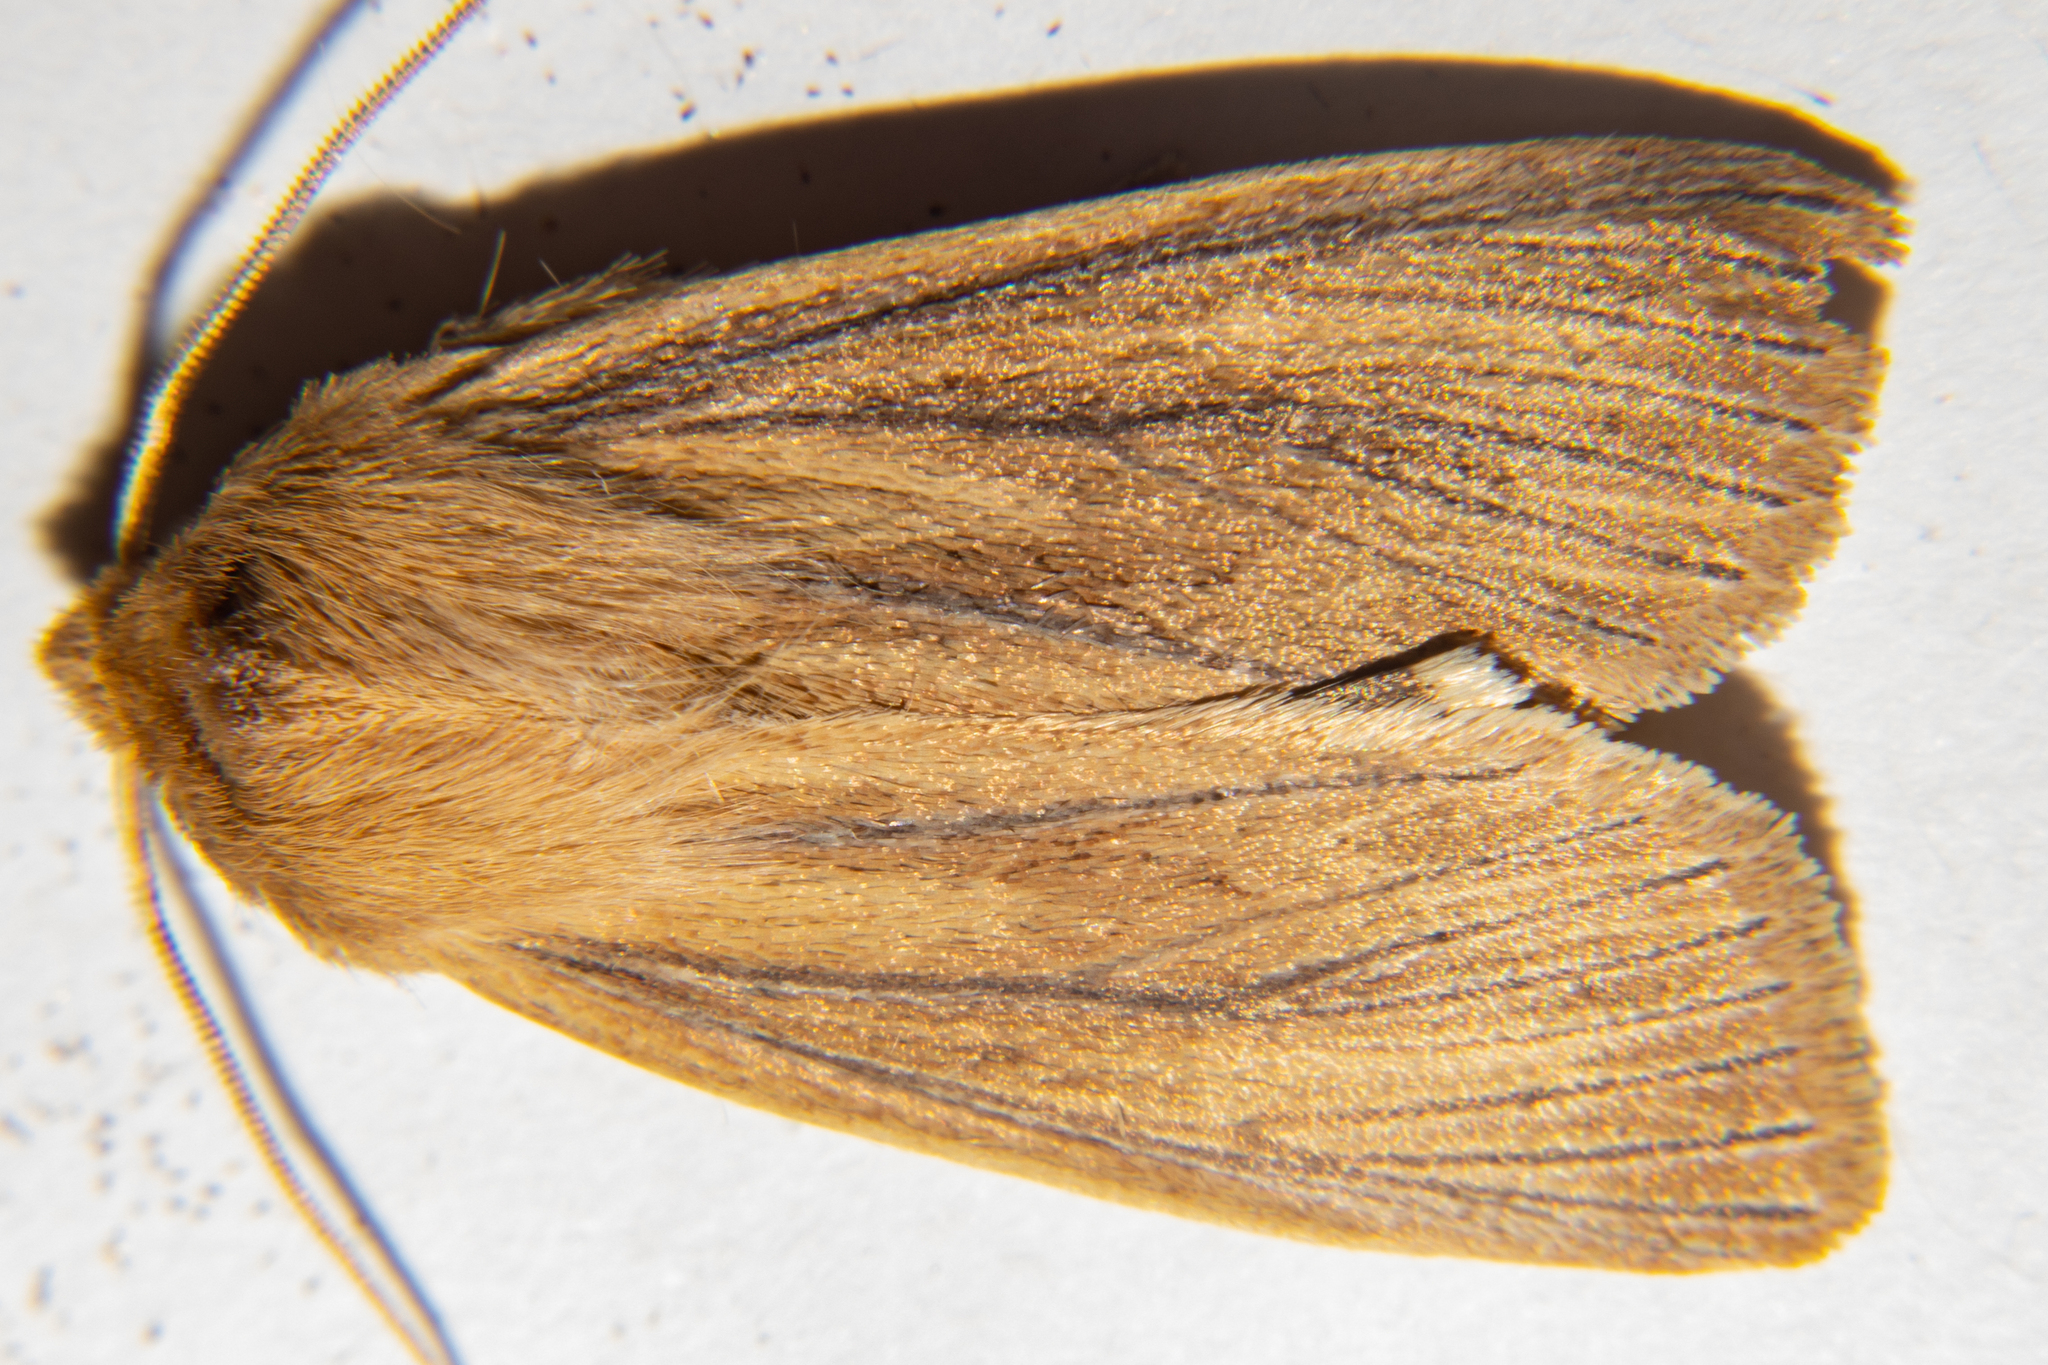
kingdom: Animalia
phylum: Arthropoda
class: Insecta
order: Lepidoptera
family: Noctuidae
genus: Ichneutica
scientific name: Ichneutica arotis
